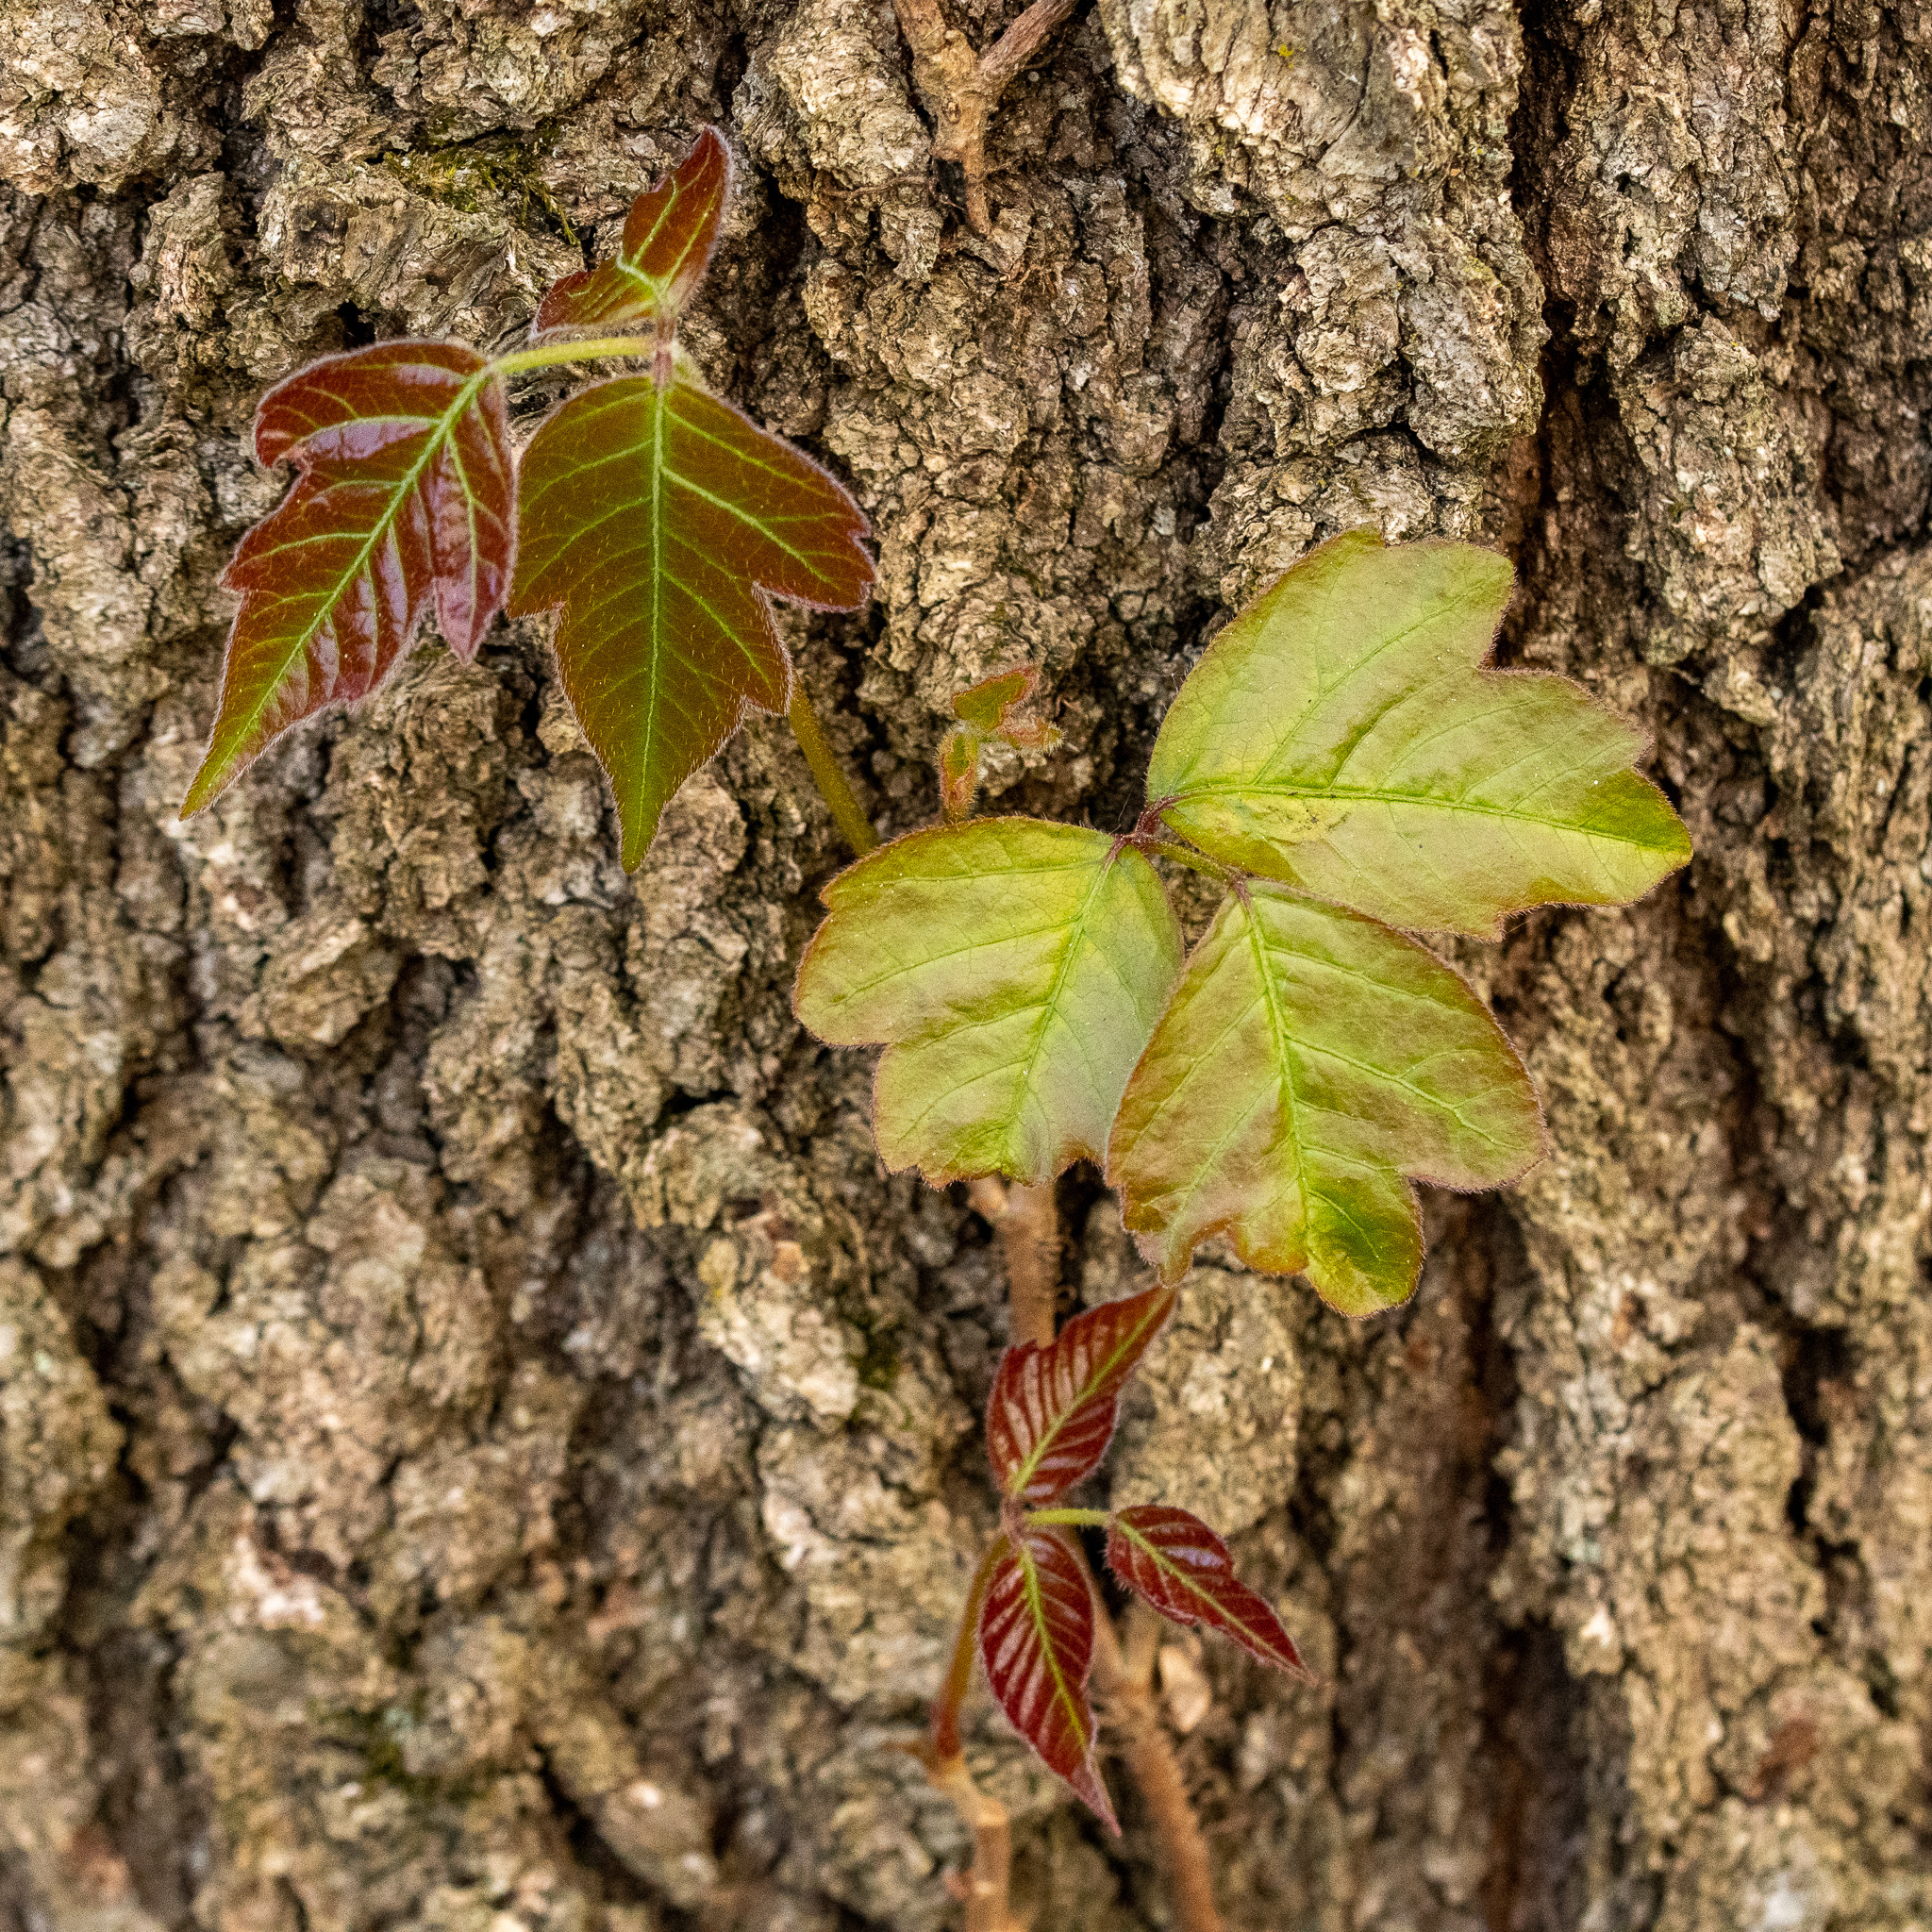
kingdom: Plantae
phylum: Tracheophyta
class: Magnoliopsida
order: Sapindales
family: Anacardiaceae
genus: Toxicodendron
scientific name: Toxicodendron radicans
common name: Poison ivy
